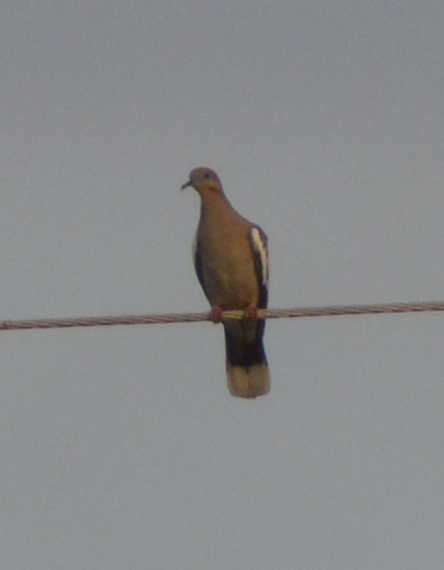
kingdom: Animalia
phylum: Chordata
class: Aves
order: Columbiformes
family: Columbidae
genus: Zenaida
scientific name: Zenaida asiatica
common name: White-winged dove
